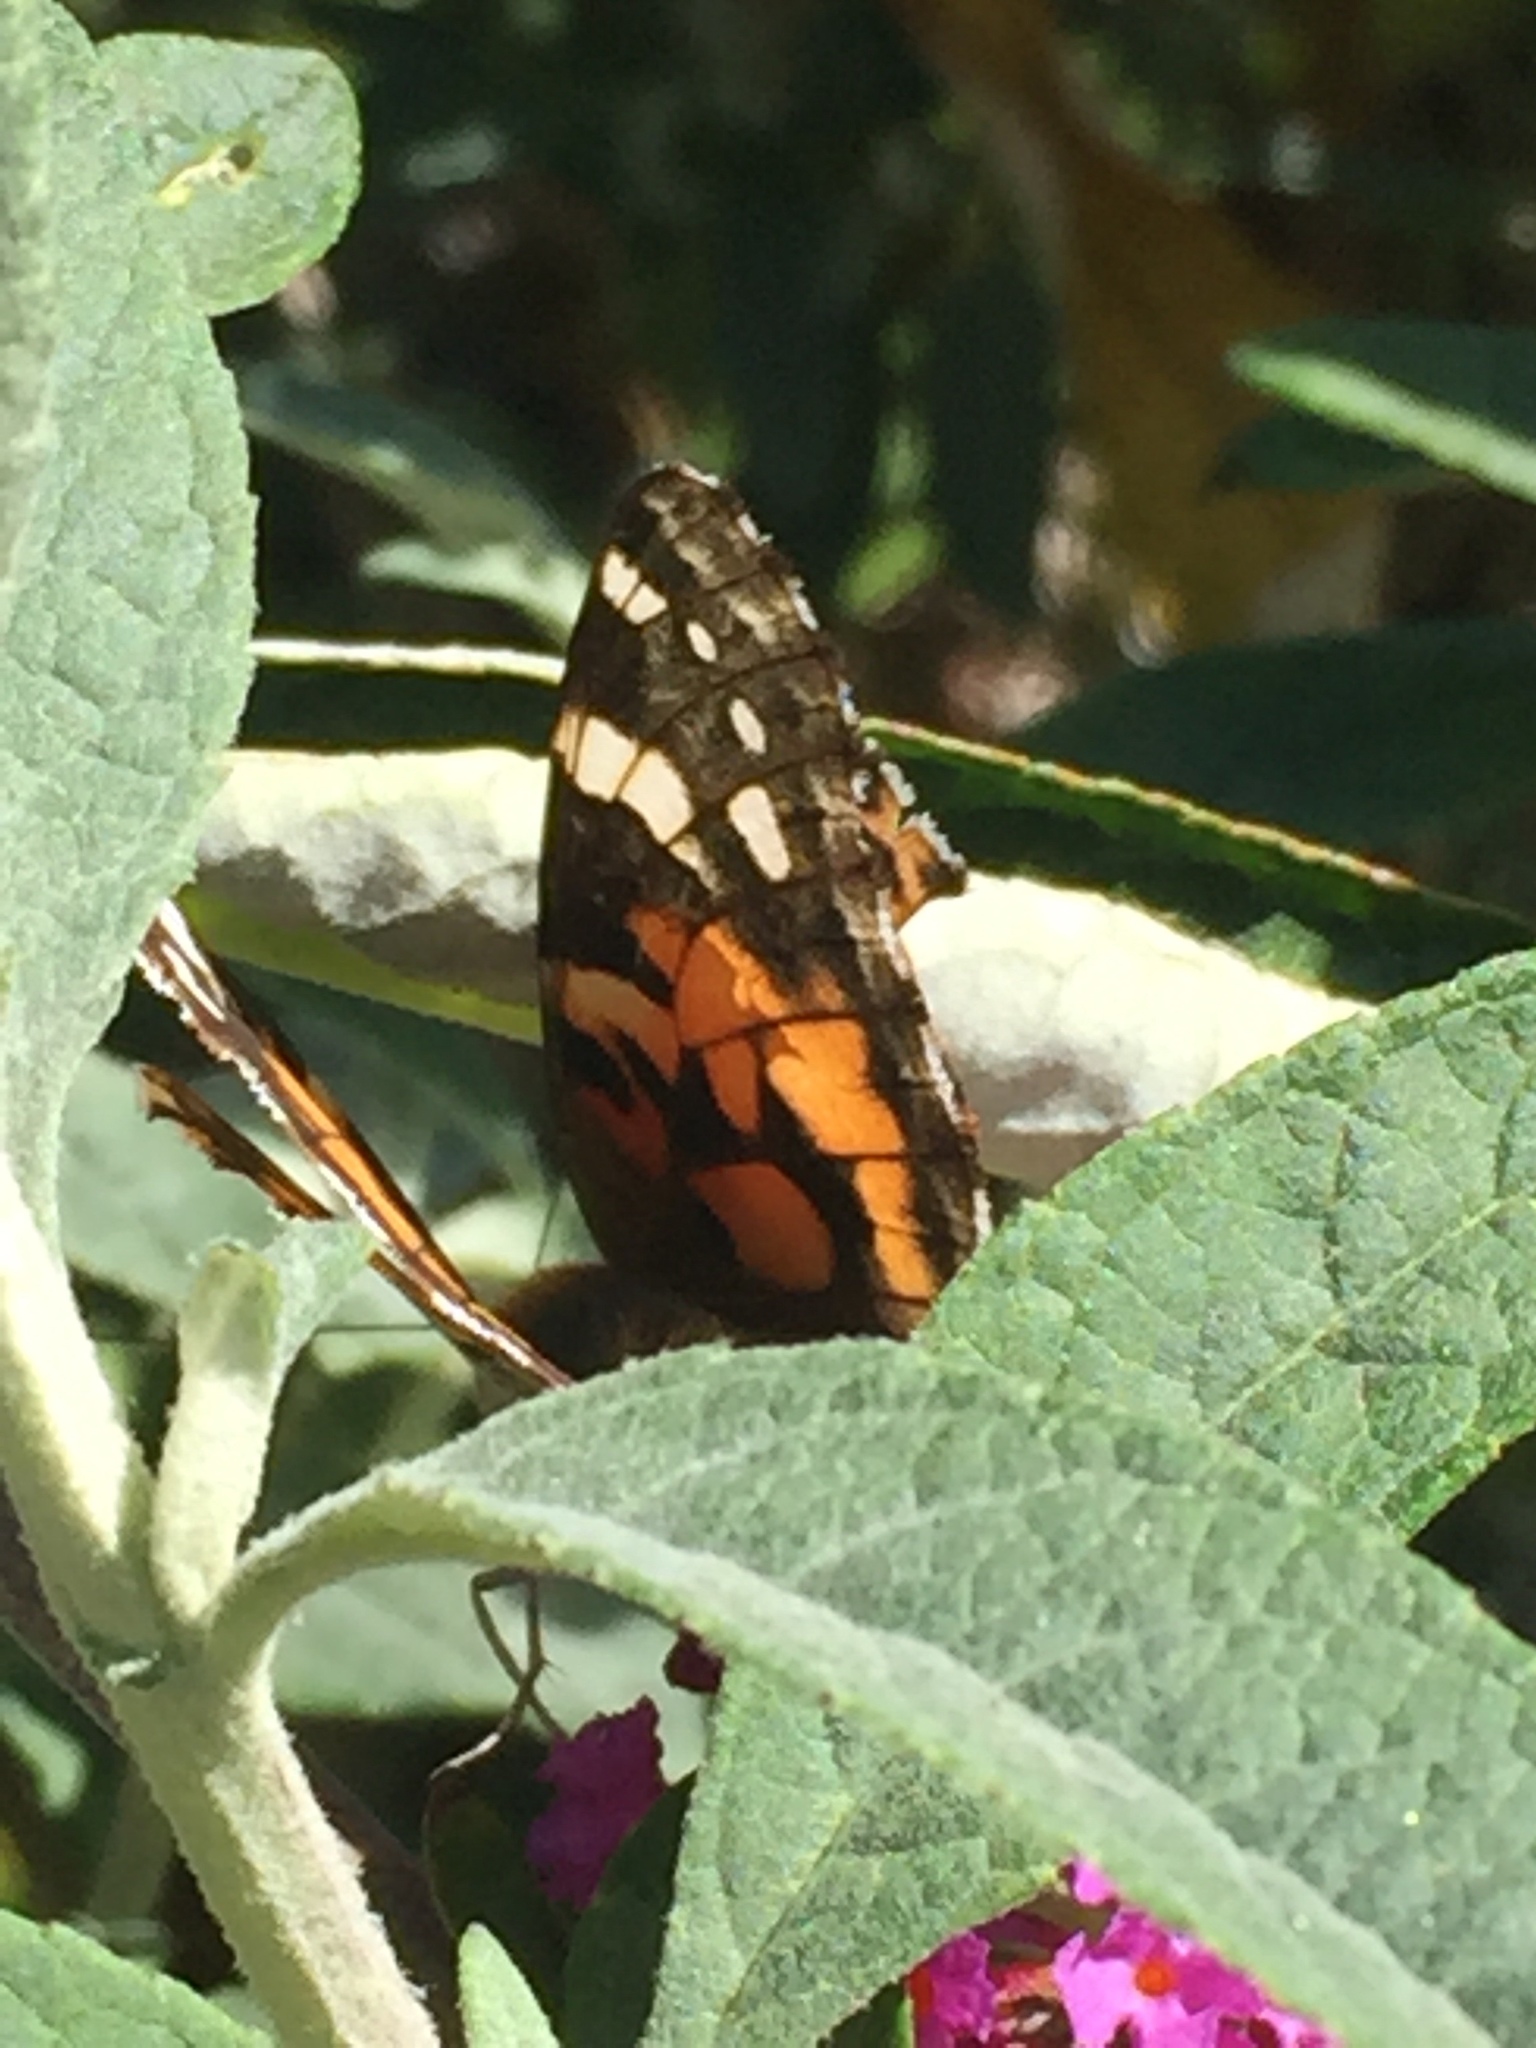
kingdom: Animalia
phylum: Arthropoda
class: Insecta
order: Lepidoptera
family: Nymphalidae
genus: Vanessa
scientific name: Vanessa cardui
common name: Painted lady
